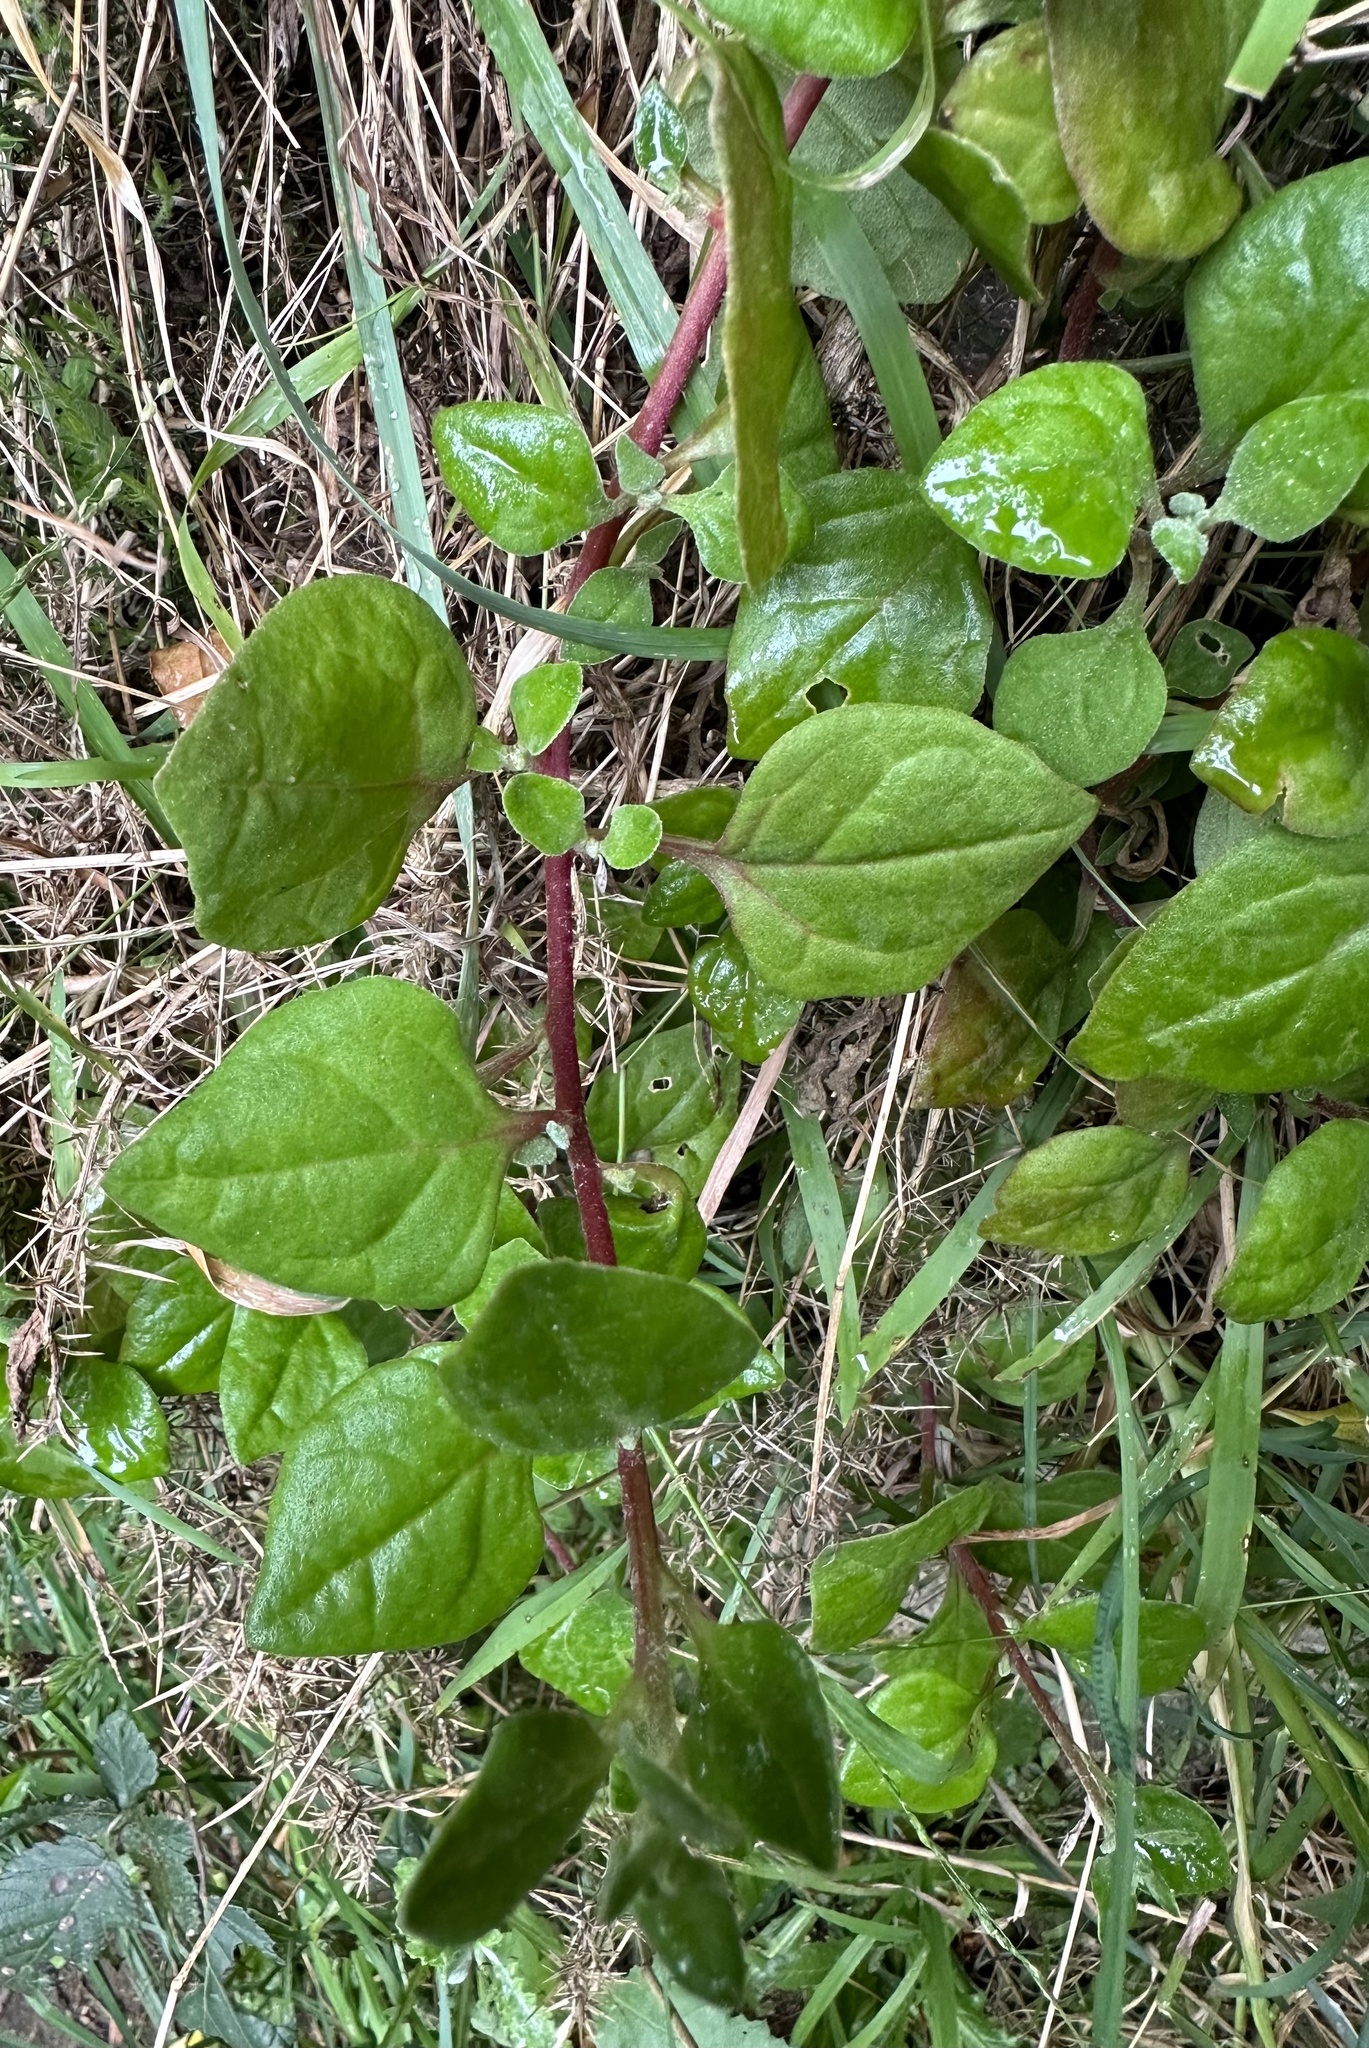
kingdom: Plantae
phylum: Tracheophyta
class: Magnoliopsida
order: Caryophyllales
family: Aizoaceae
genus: Tetragonia
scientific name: Tetragonia implexicoma
